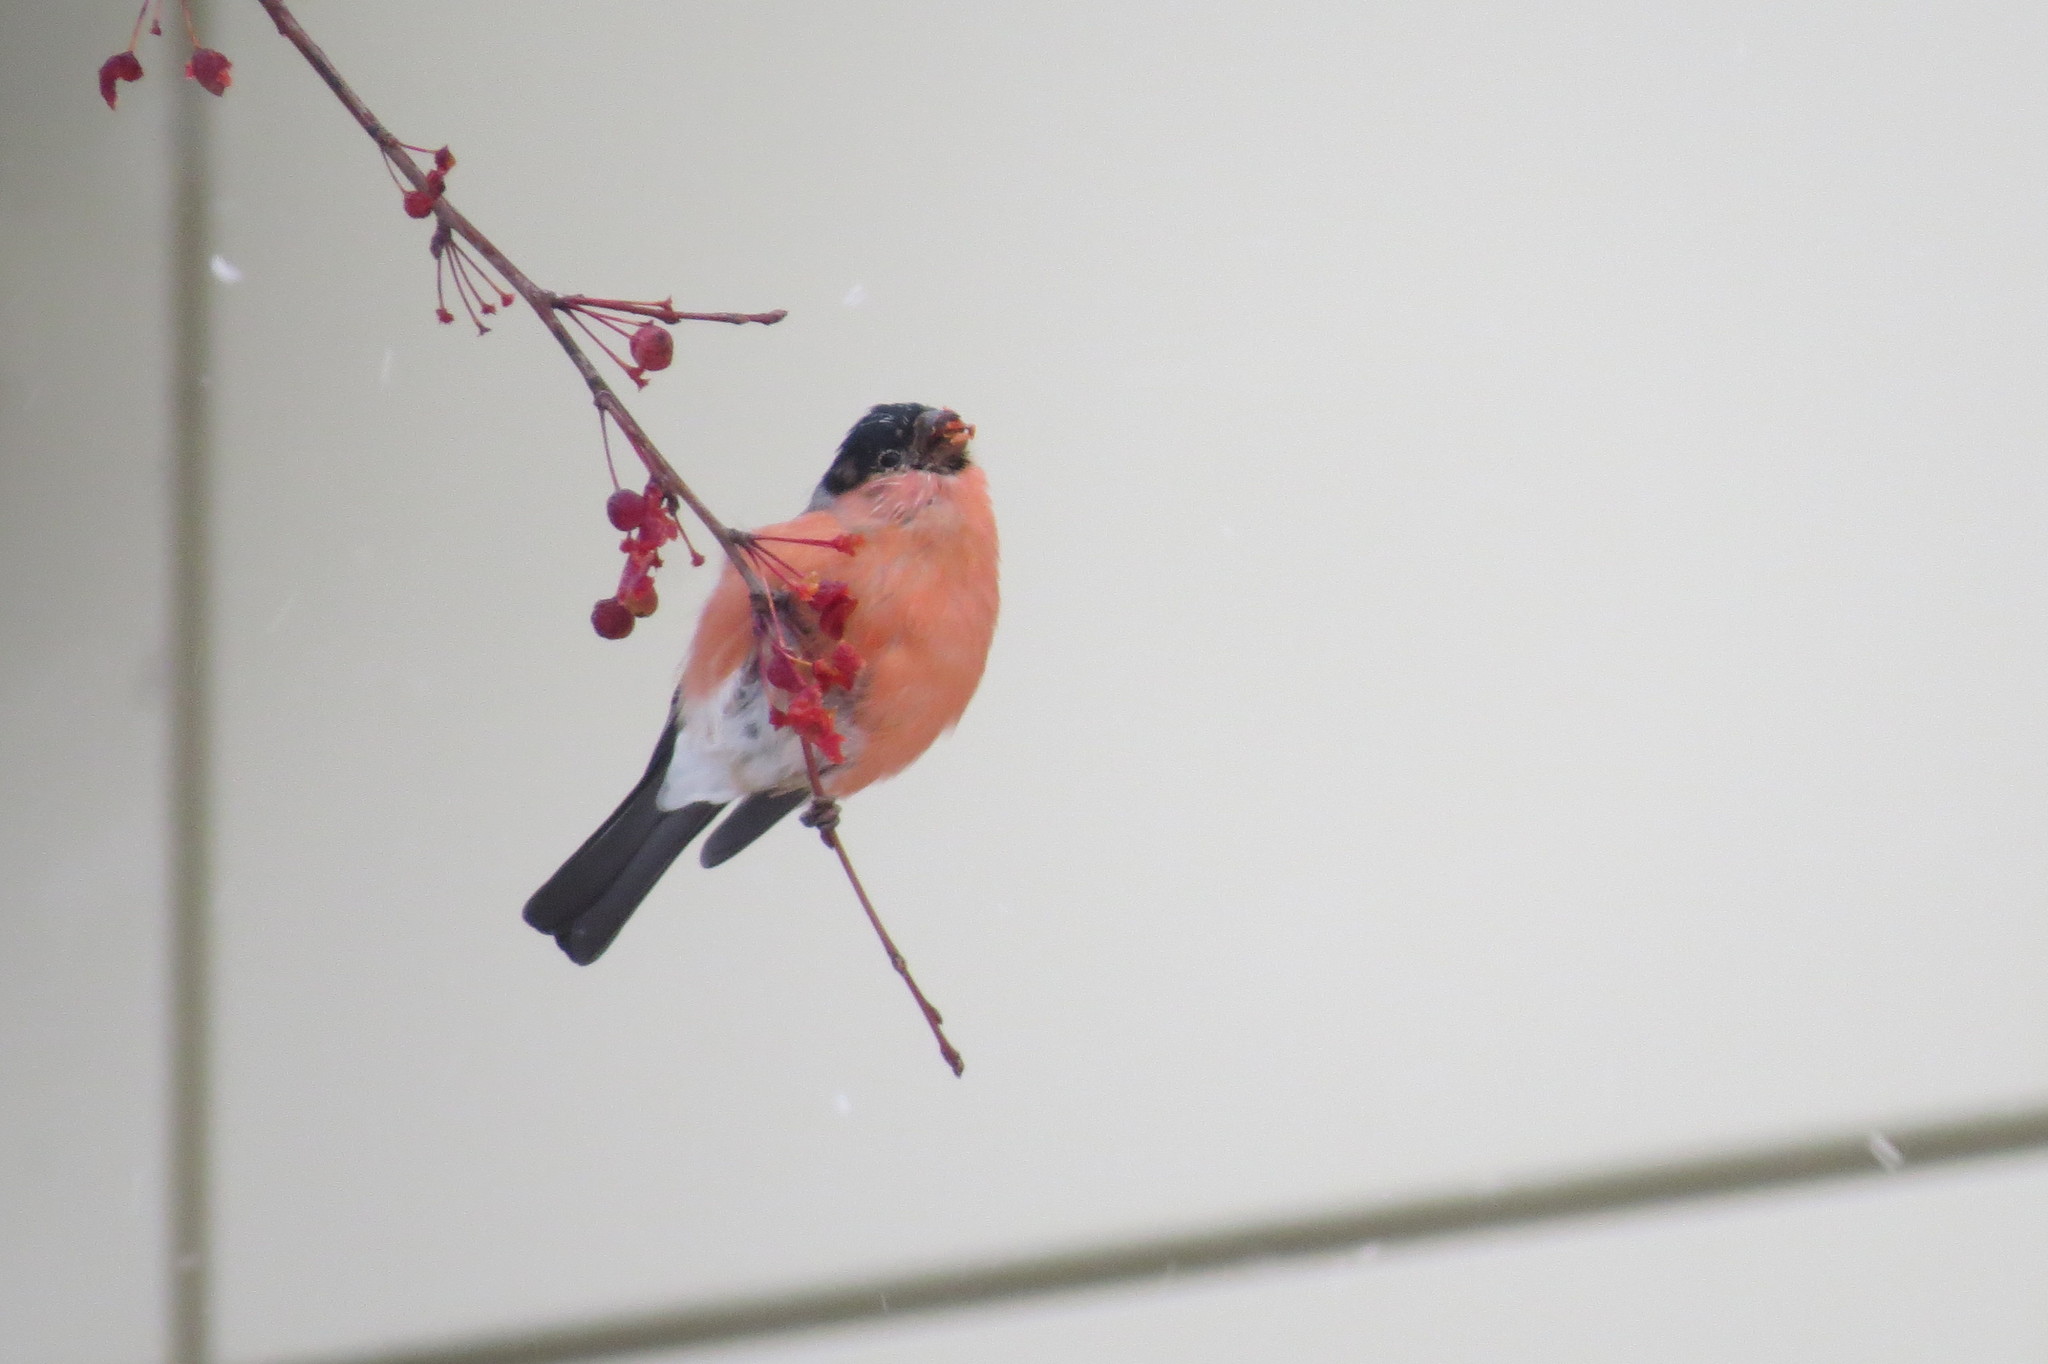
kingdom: Animalia
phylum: Chordata
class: Aves
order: Passeriformes
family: Fringillidae
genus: Pyrrhula
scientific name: Pyrrhula pyrrhula
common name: Eurasian bullfinch
